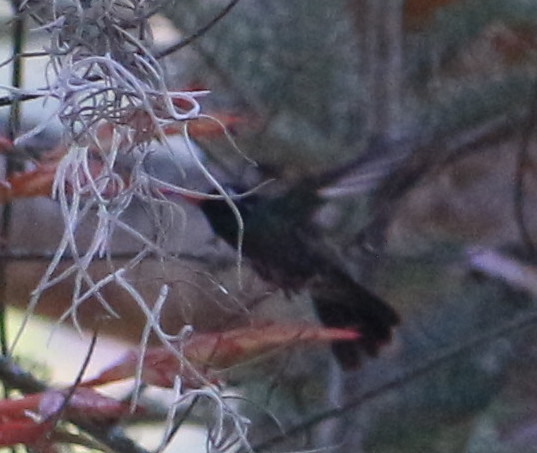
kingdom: Animalia
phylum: Chordata
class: Aves
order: Apodiformes
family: Trochilidae
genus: Basilinna
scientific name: Basilinna leucotis
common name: White-eared hummingbird
